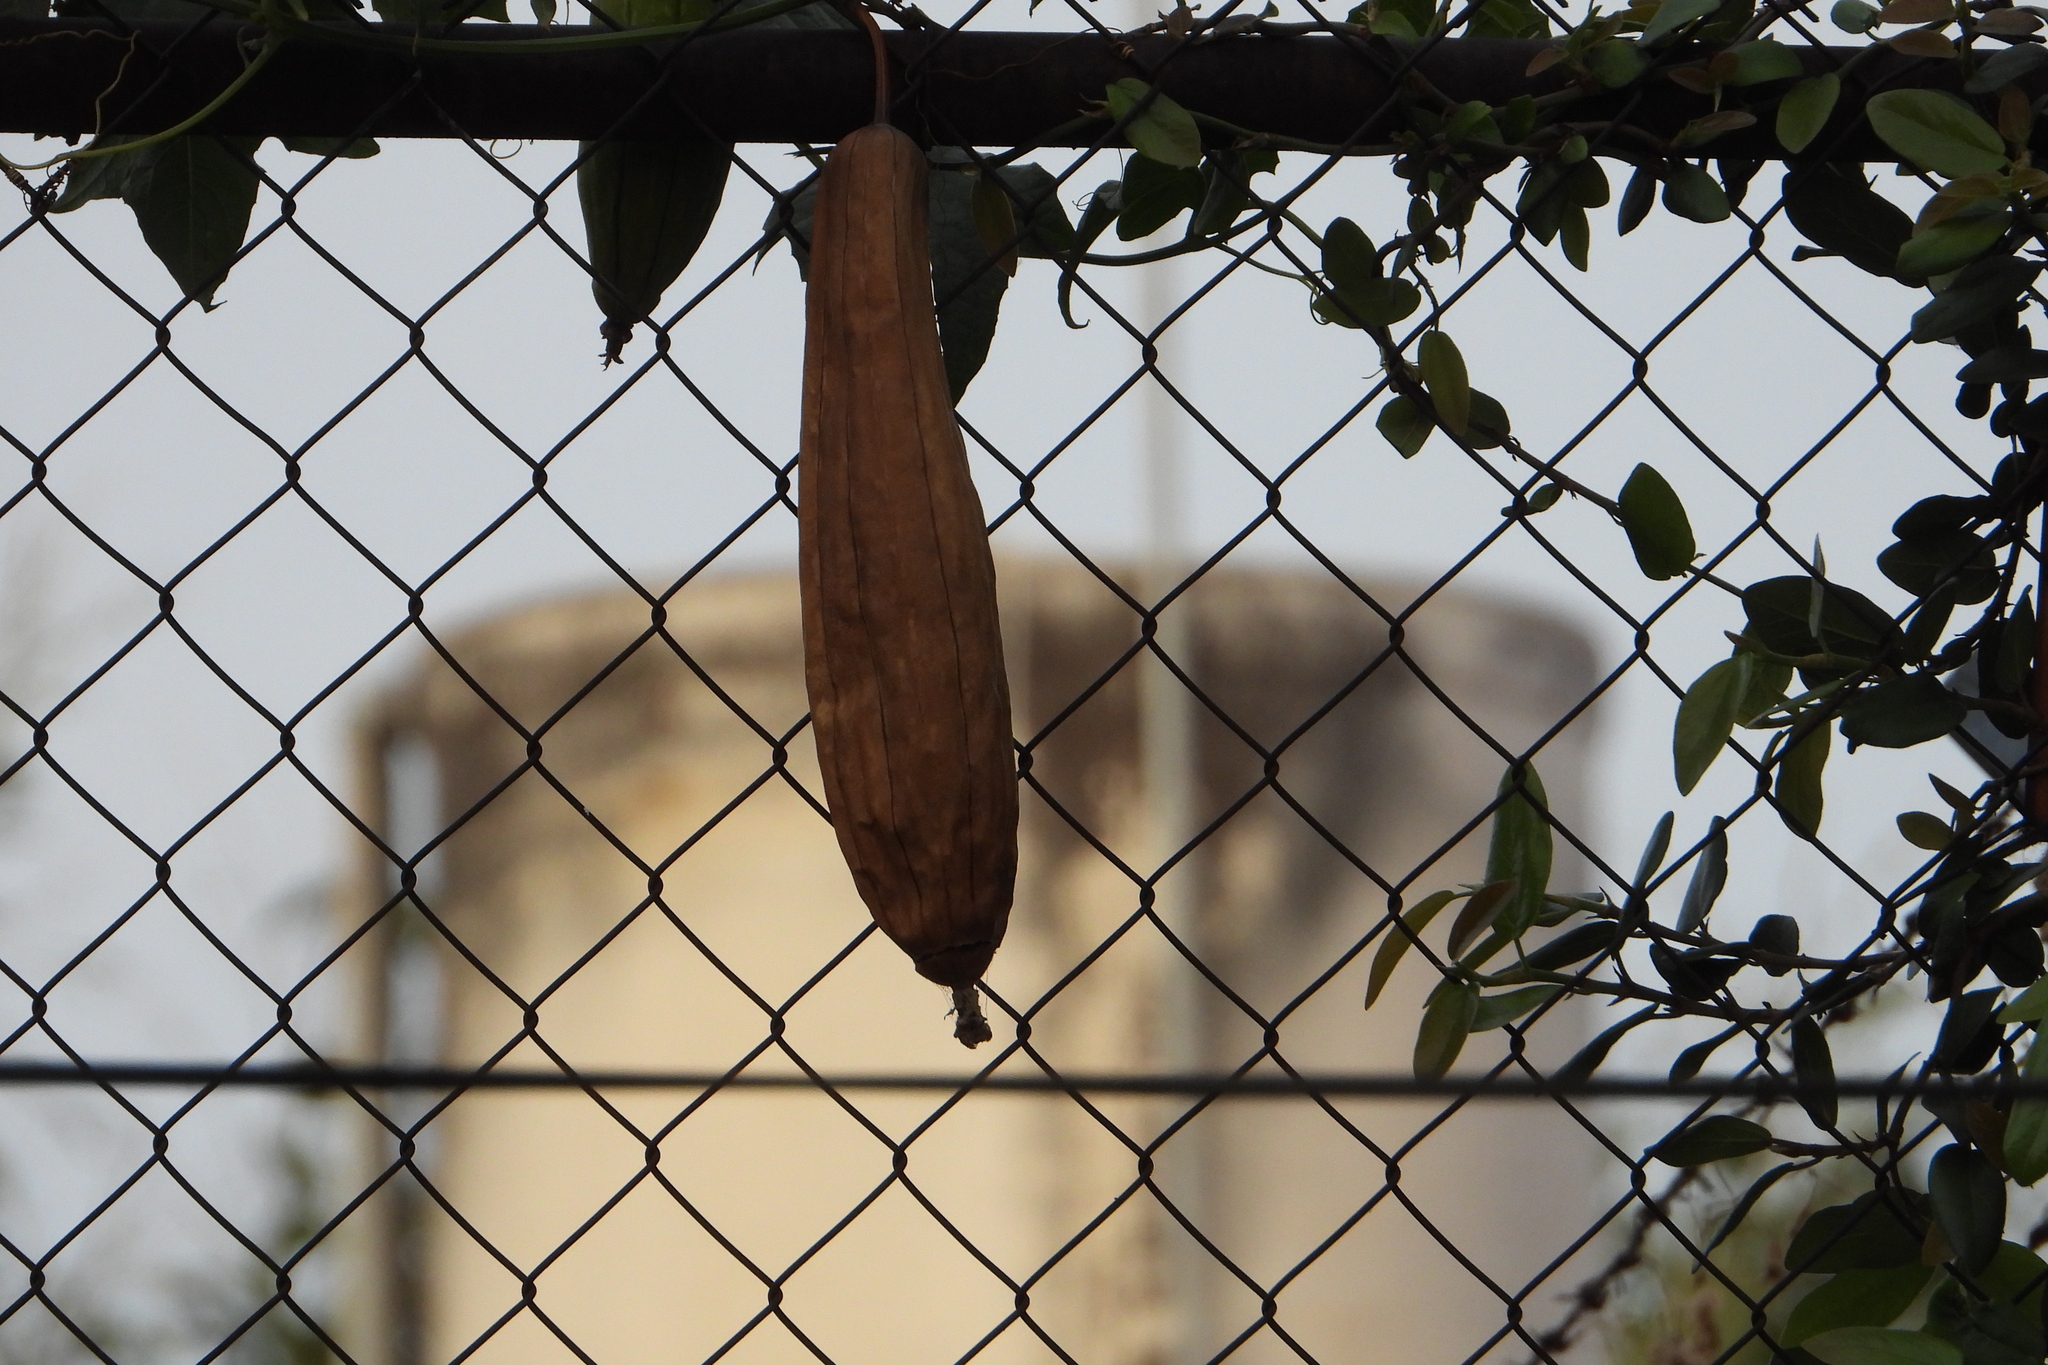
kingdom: Plantae
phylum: Tracheophyta
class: Magnoliopsida
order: Cucurbitales
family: Cucurbitaceae
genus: Luffa
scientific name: Luffa aegyptiaca
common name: Sponge gourd
